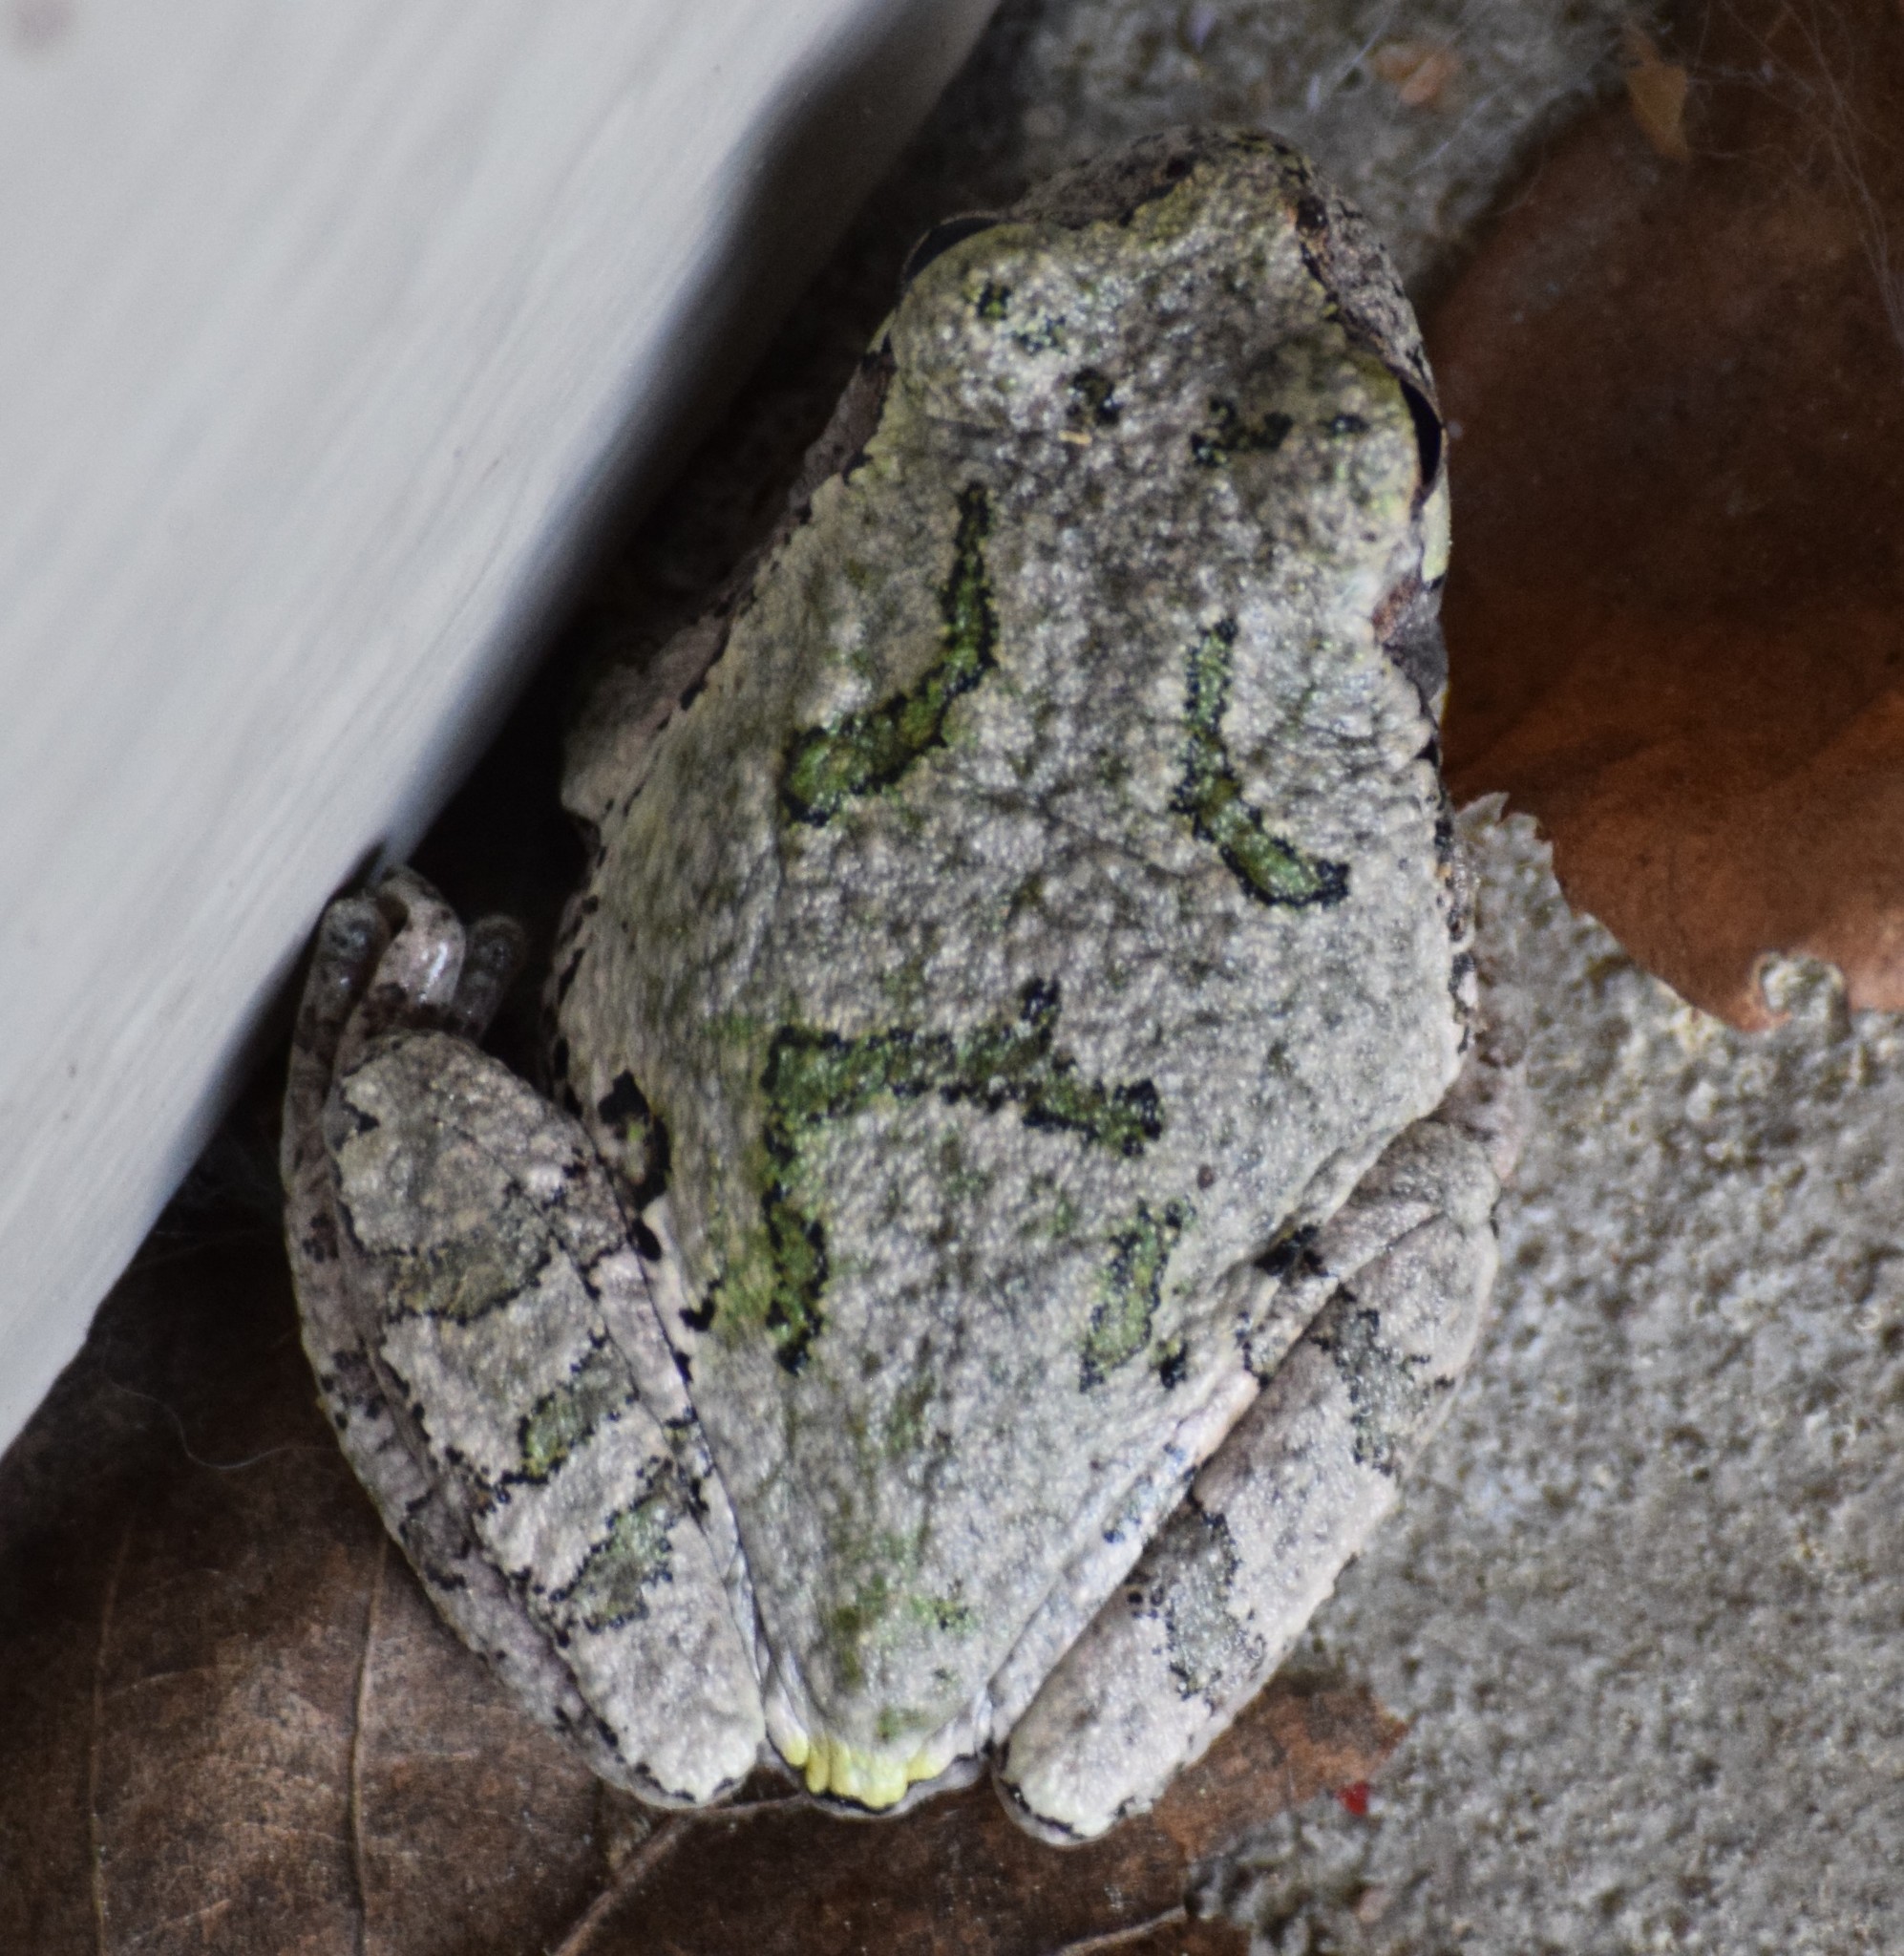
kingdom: Animalia
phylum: Chordata
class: Amphibia
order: Anura
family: Hylidae
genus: Hyla
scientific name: Hyla
